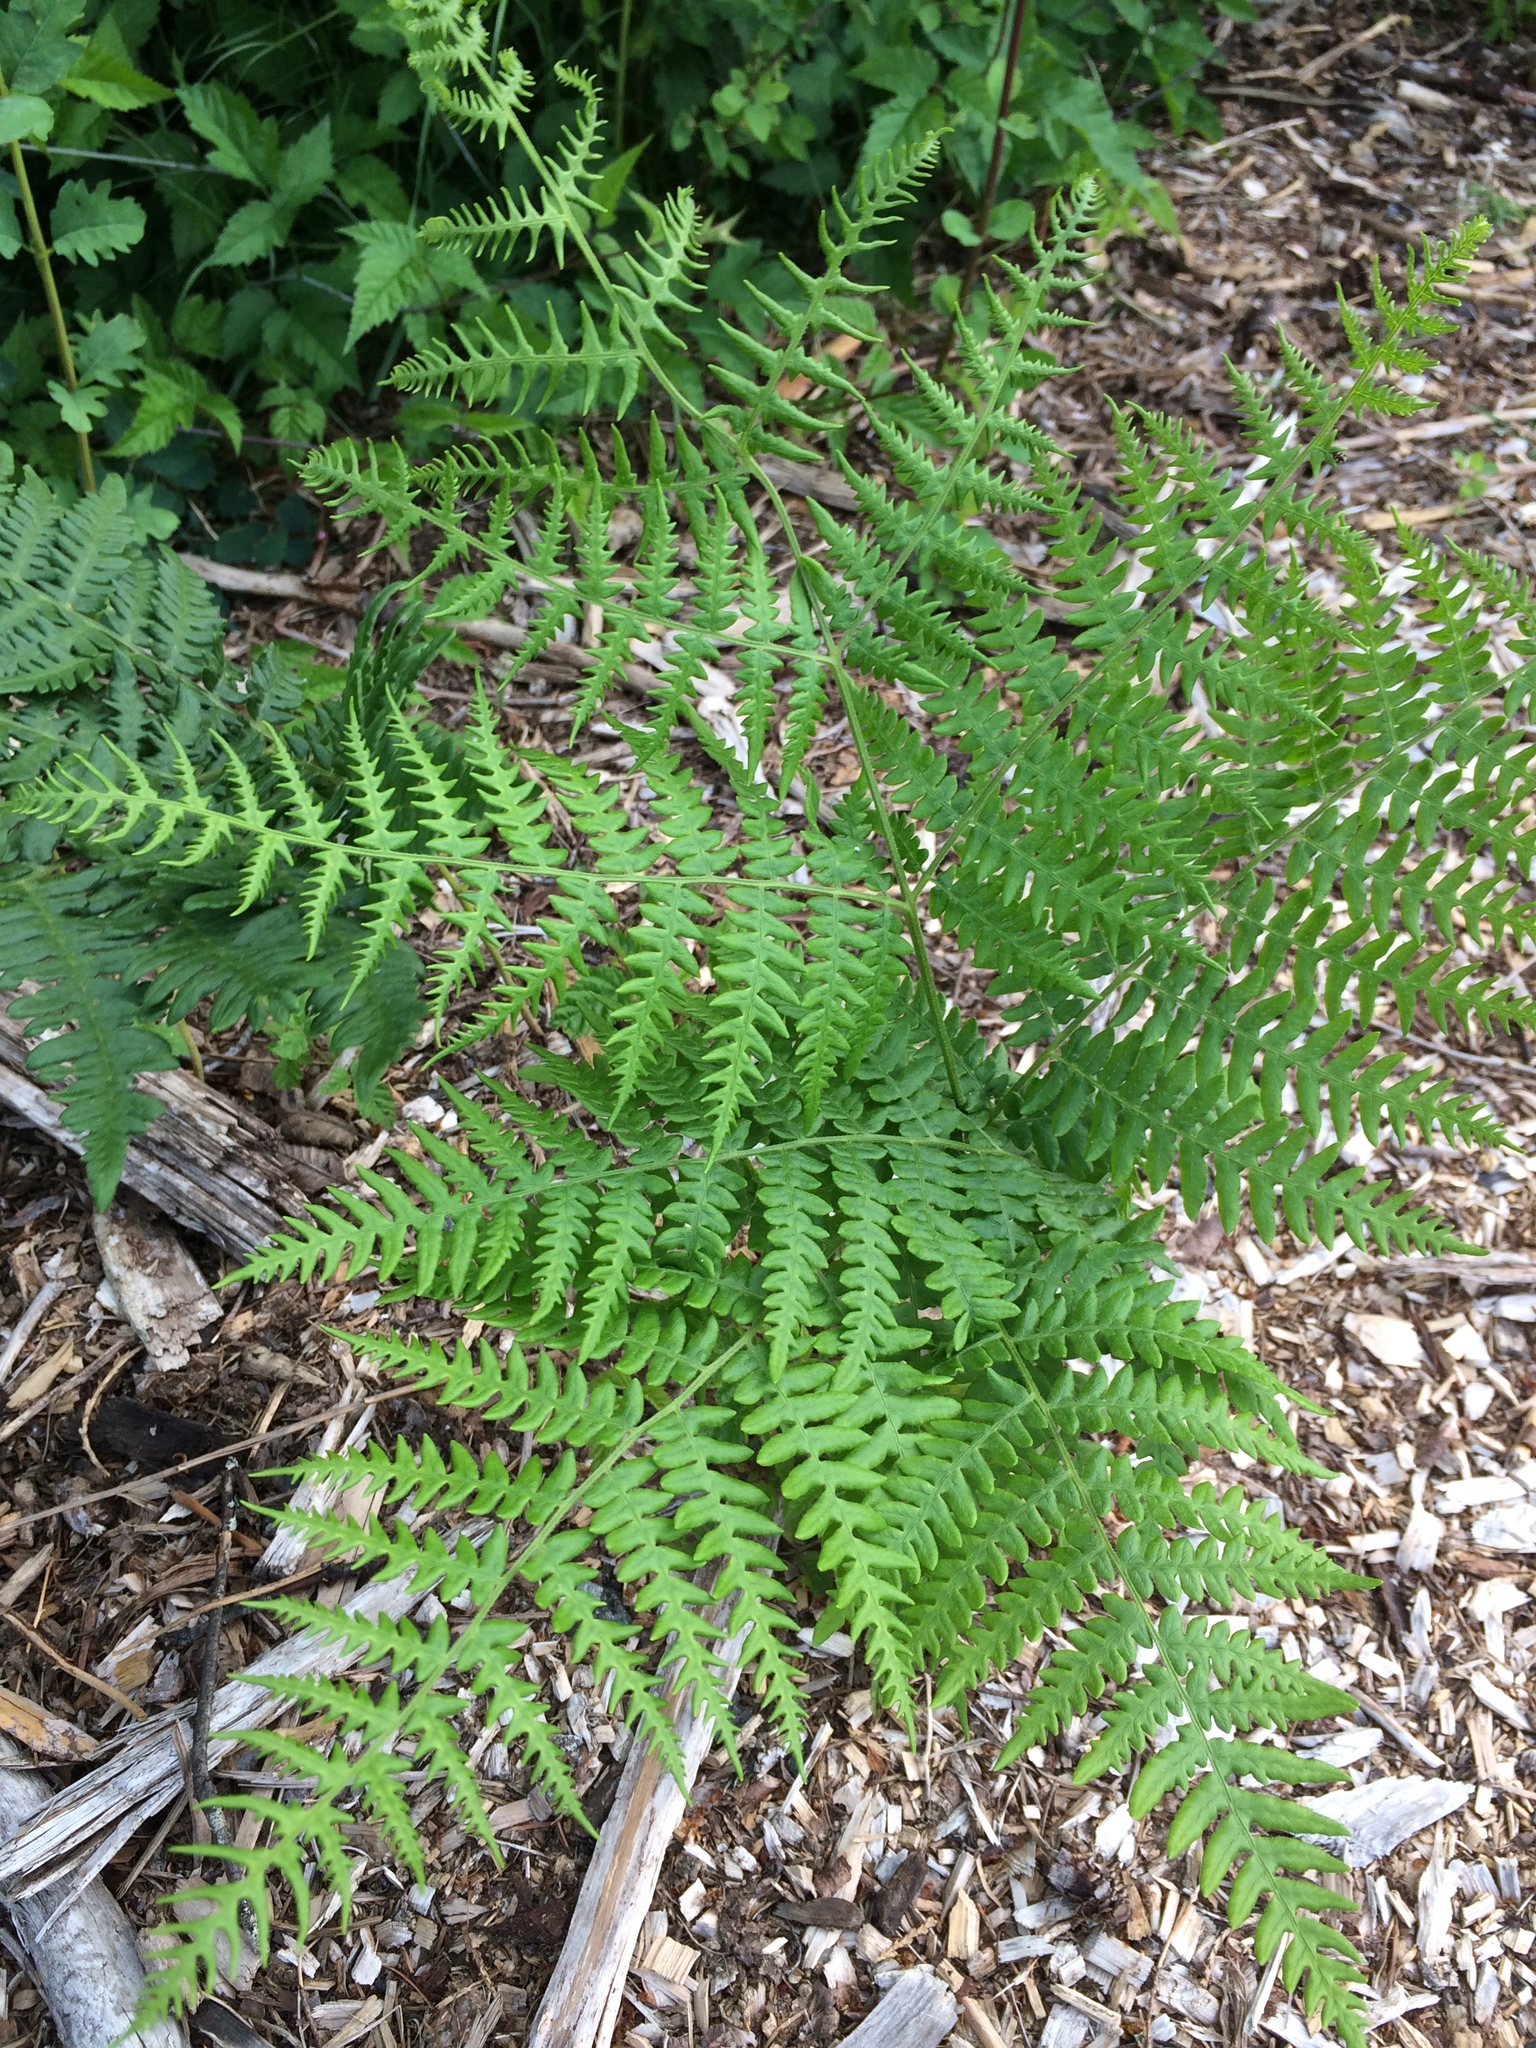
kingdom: Plantae
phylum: Tracheophyta
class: Polypodiopsida
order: Polypodiales
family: Dennstaedtiaceae
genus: Pteridium
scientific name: Pteridium aquilinum
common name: Bracken
